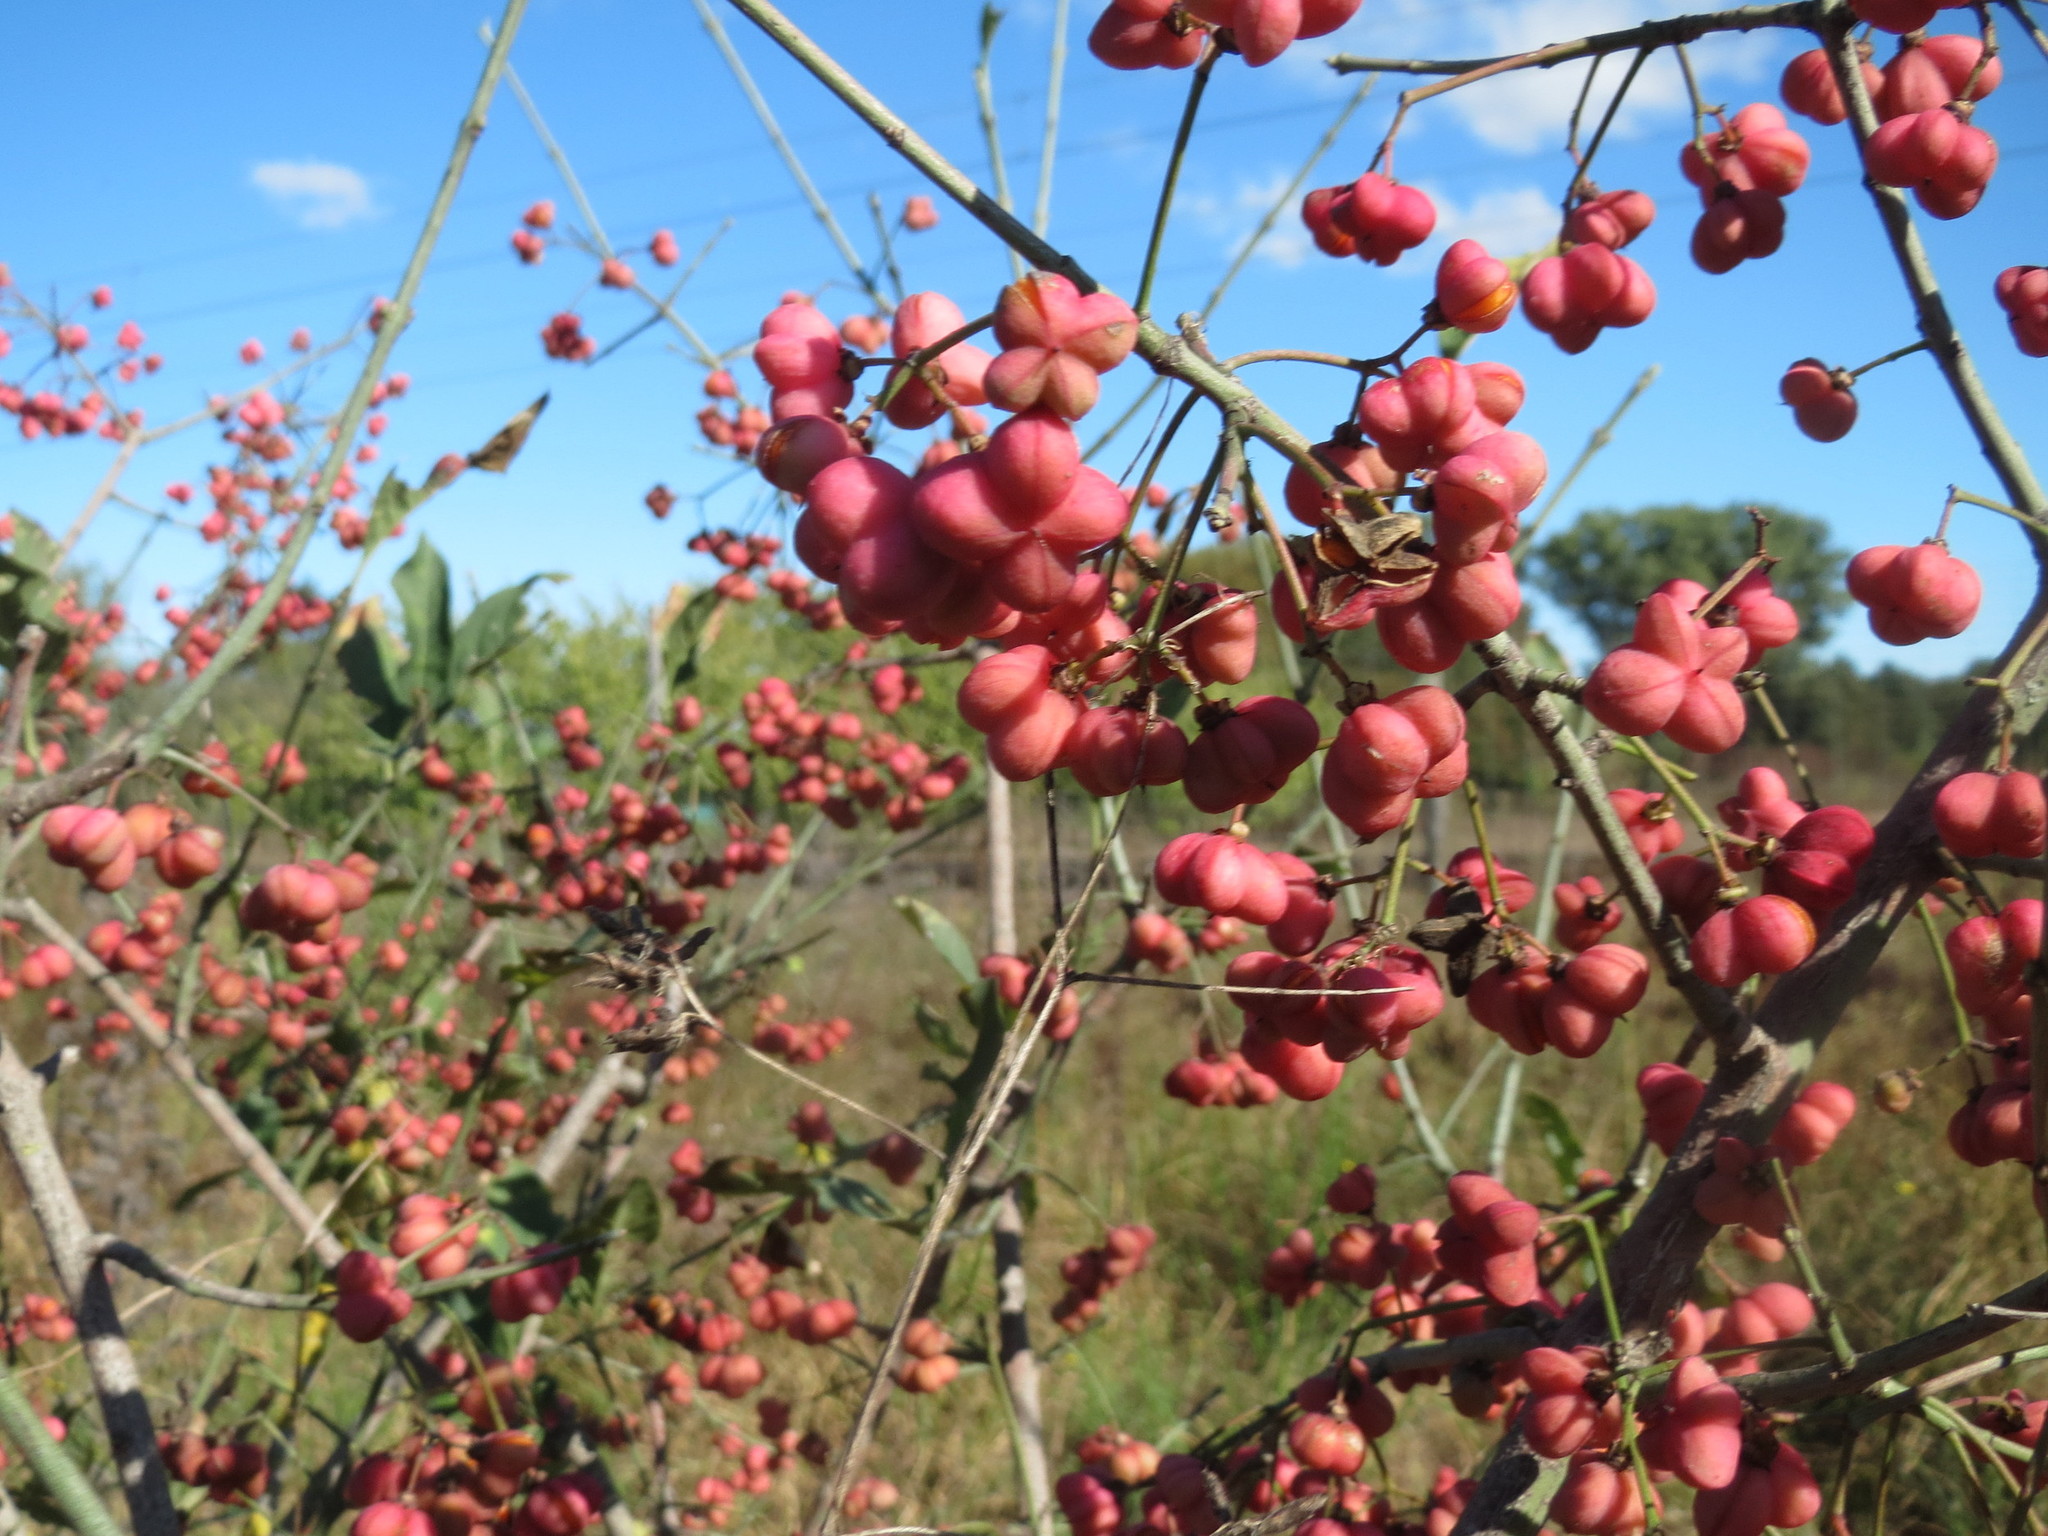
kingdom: Plantae
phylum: Tracheophyta
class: Magnoliopsida
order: Celastrales
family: Celastraceae
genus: Euonymus
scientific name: Euonymus europaeus
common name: Spindle
